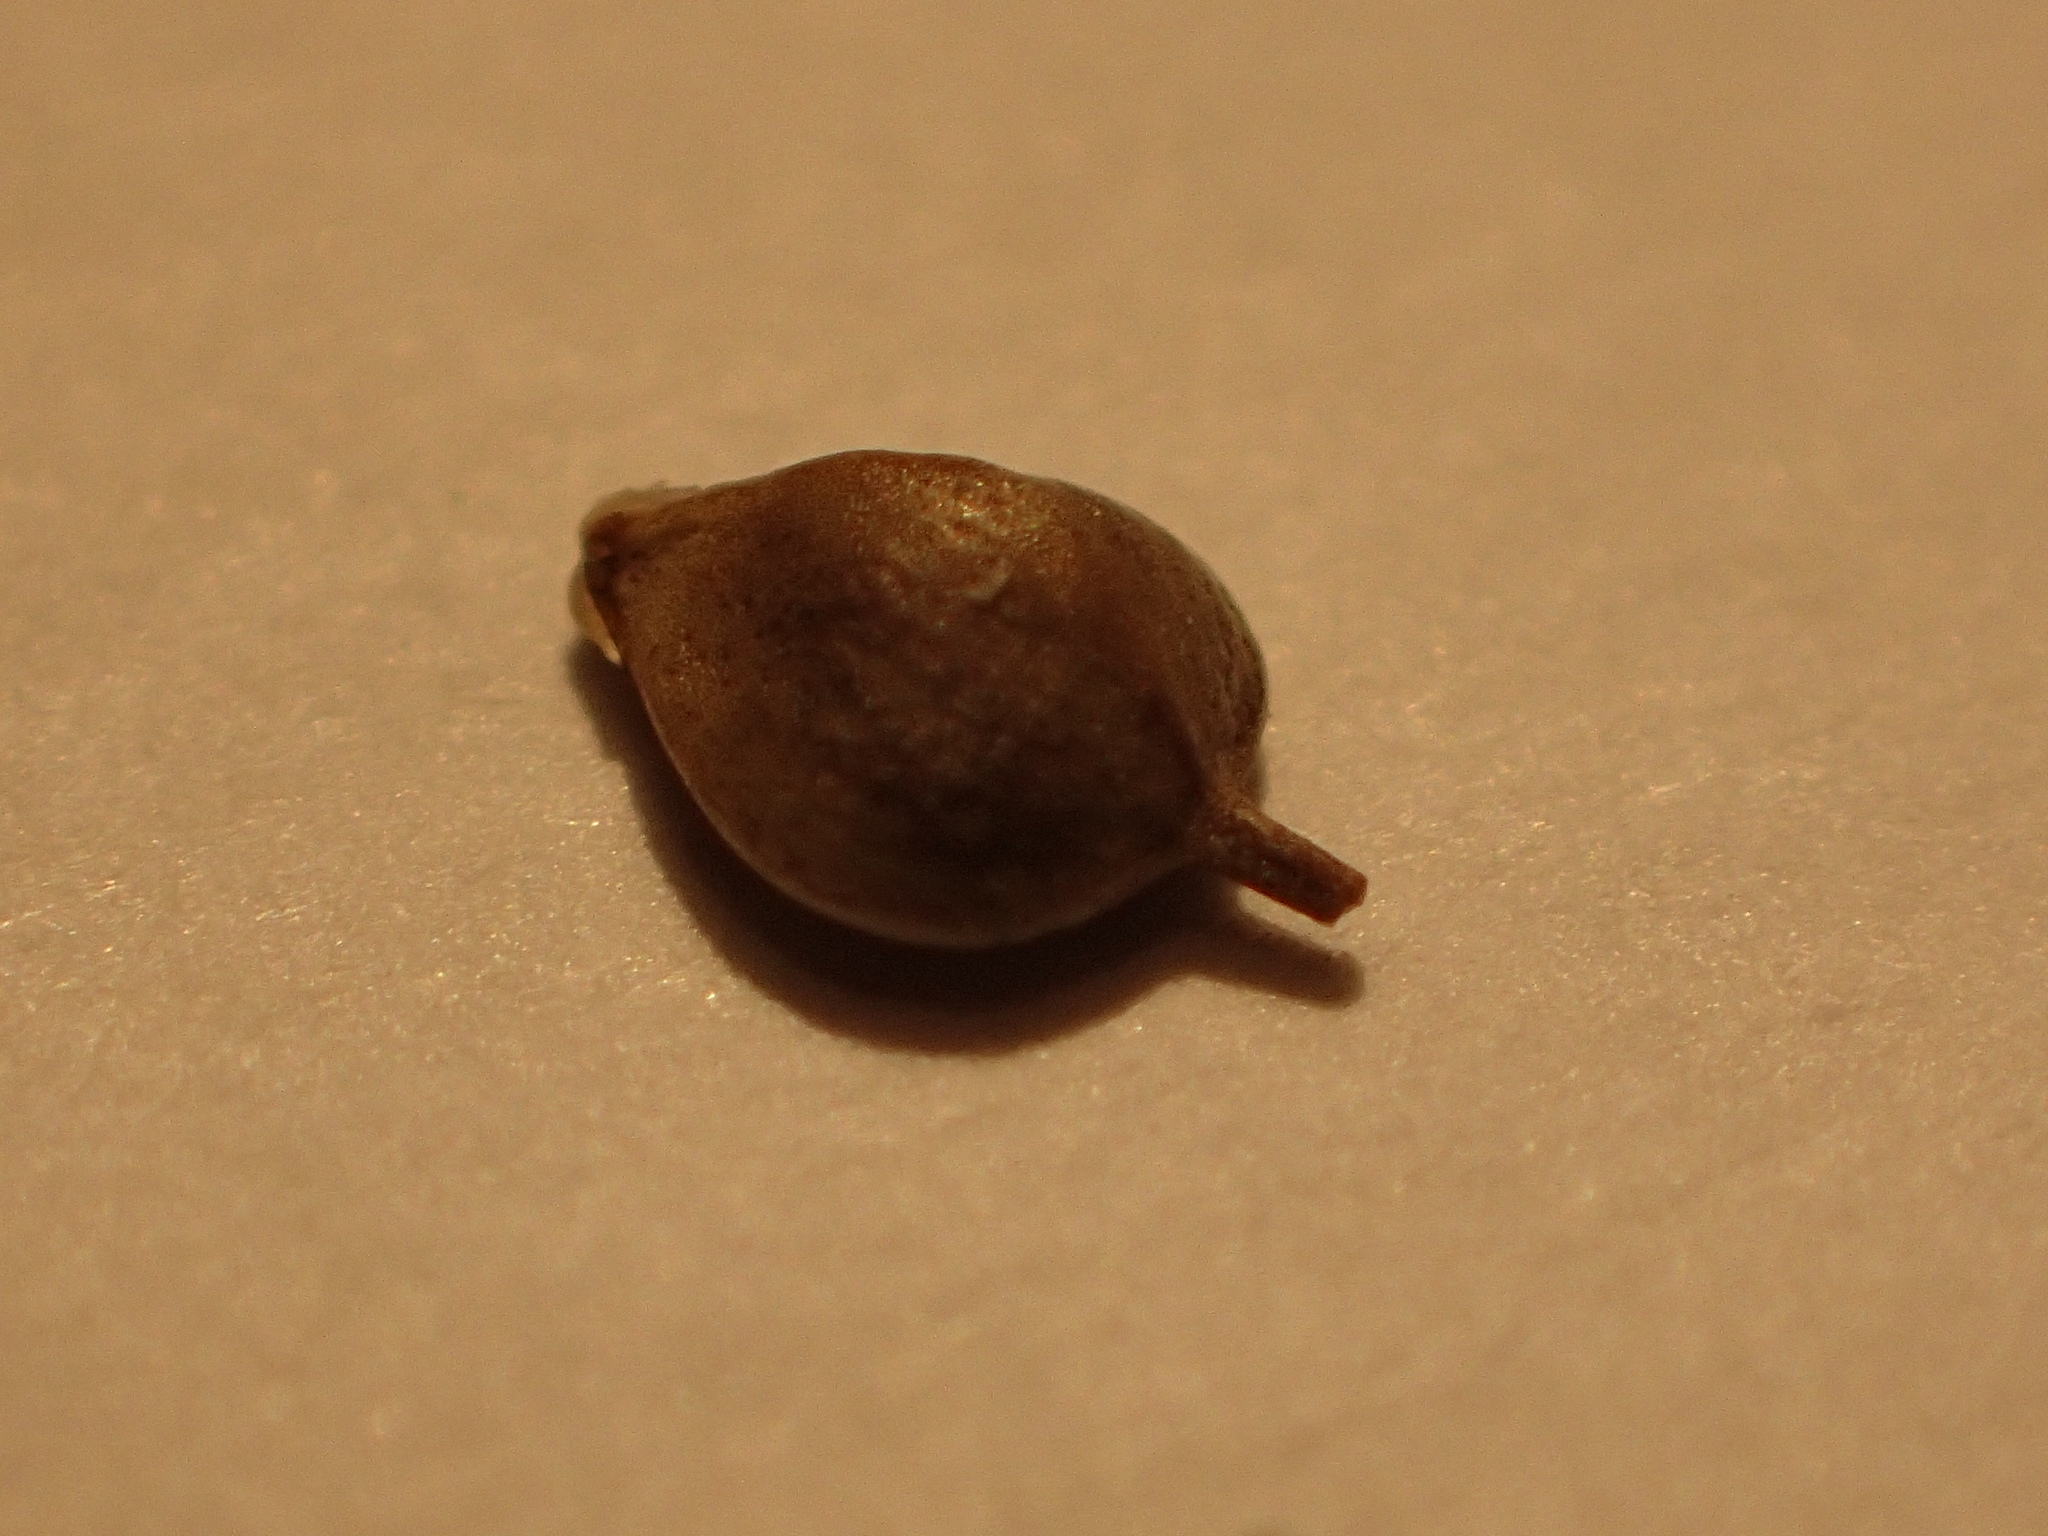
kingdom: Plantae
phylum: Tracheophyta
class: Liliopsida
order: Poales
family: Cyperaceae
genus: Schoenoplectus
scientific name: Schoenoplectus heterochaetus
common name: Pale great bulrush
